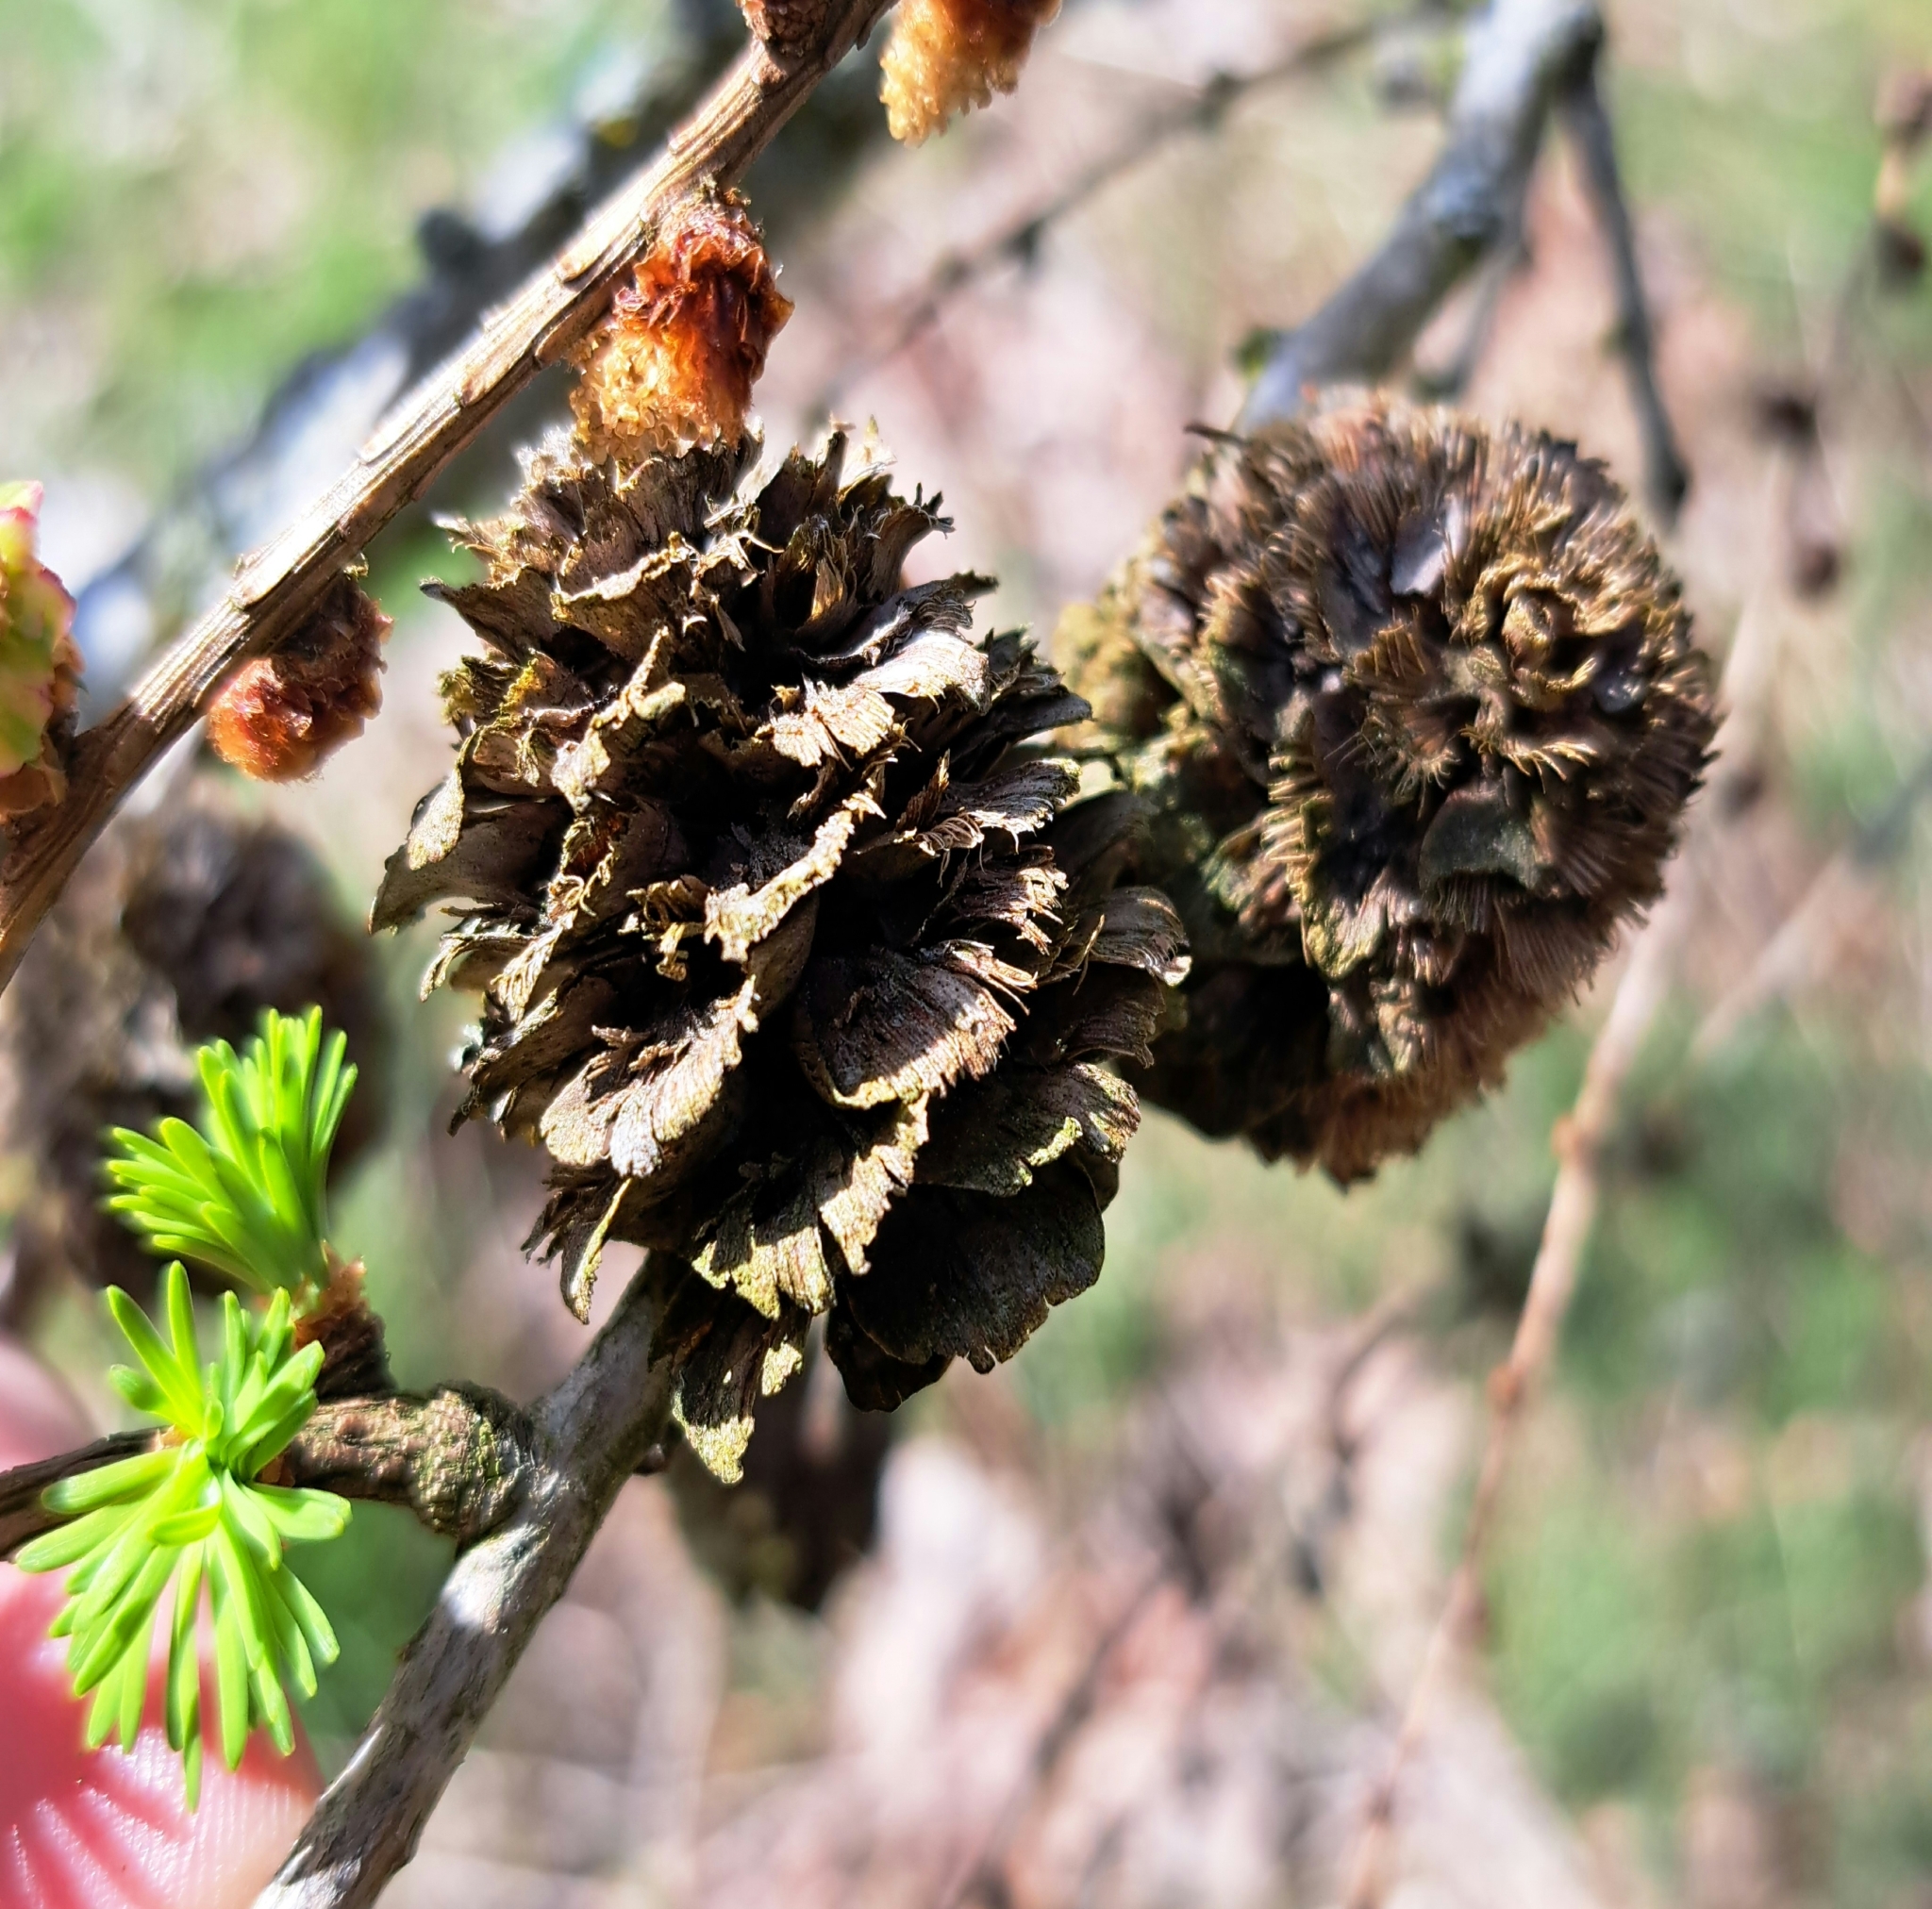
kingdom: Plantae
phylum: Tracheophyta
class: Pinopsida
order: Pinales
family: Pinaceae
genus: Larix
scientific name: Larix decidua
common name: European larch
